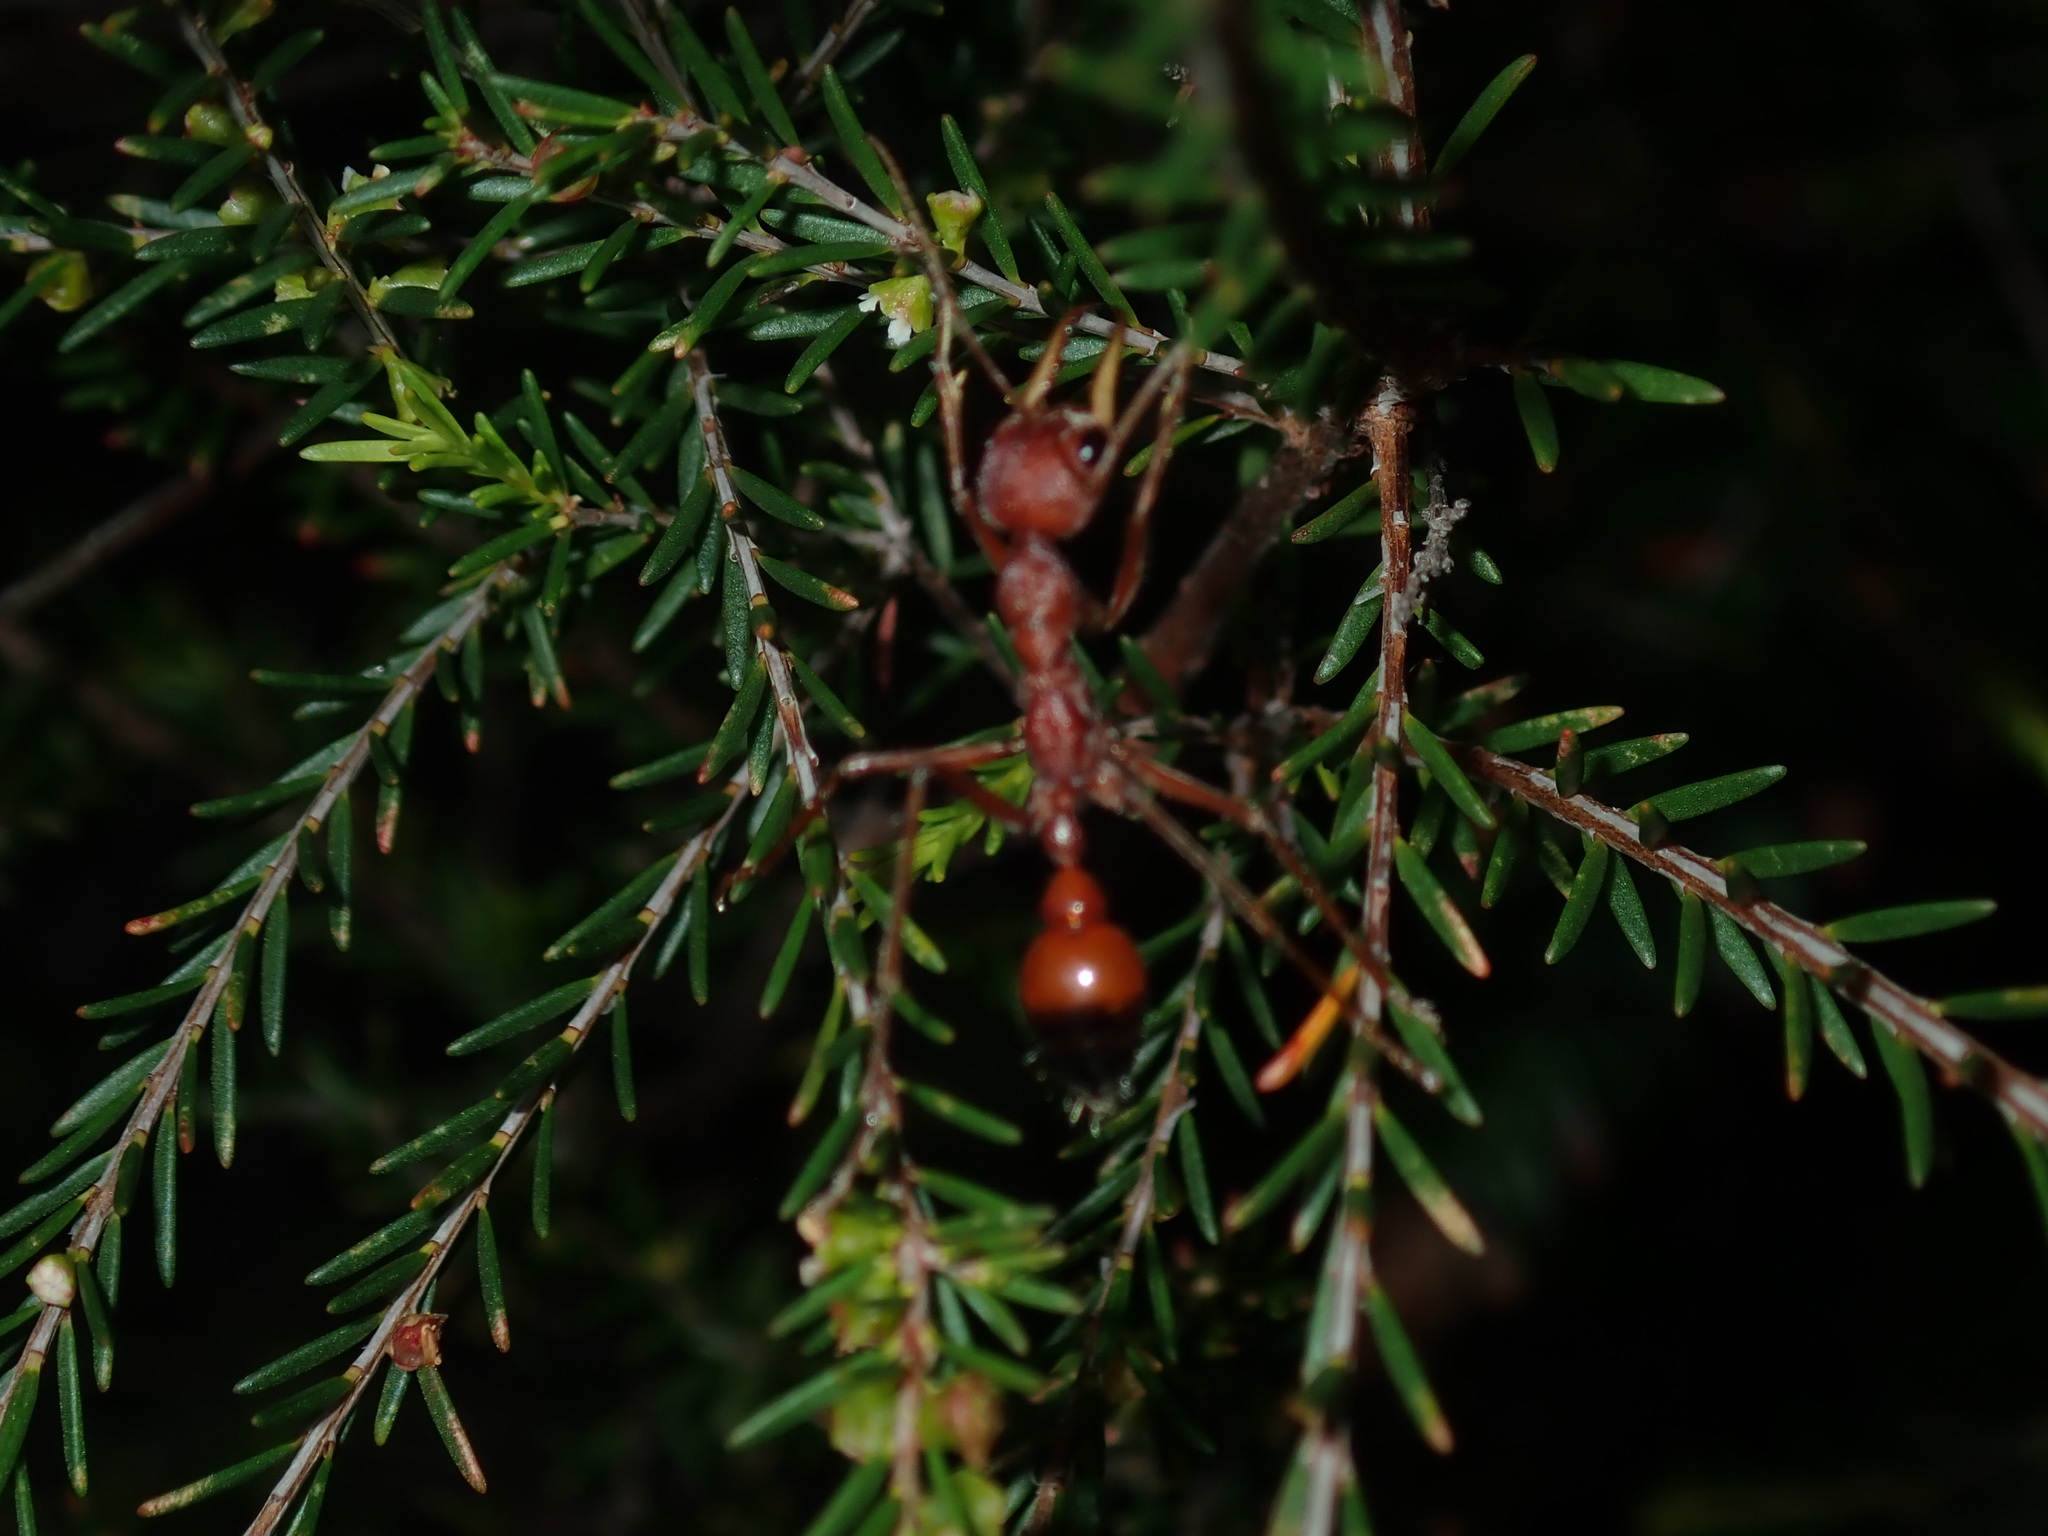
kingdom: Animalia
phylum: Arthropoda
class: Insecta
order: Hymenoptera
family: Formicidae
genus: Myrmecia
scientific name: Myrmecia gulosa
